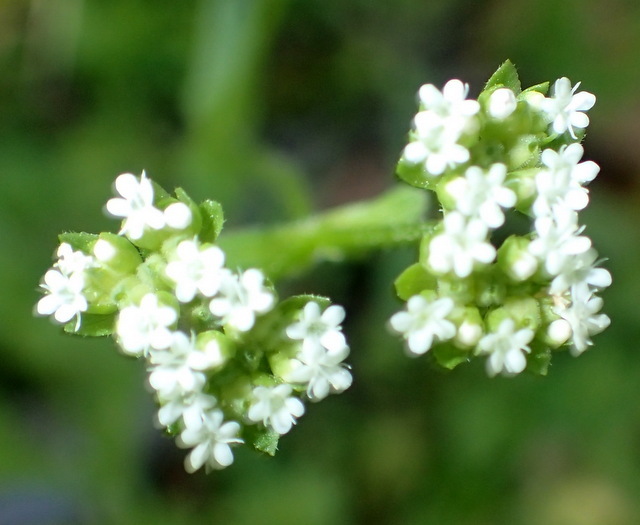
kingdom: Plantae
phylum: Tracheophyta
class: Magnoliopsida
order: Dipsacales
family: Caprifoliaceae
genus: Valerianella
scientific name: Valerianella radiata
